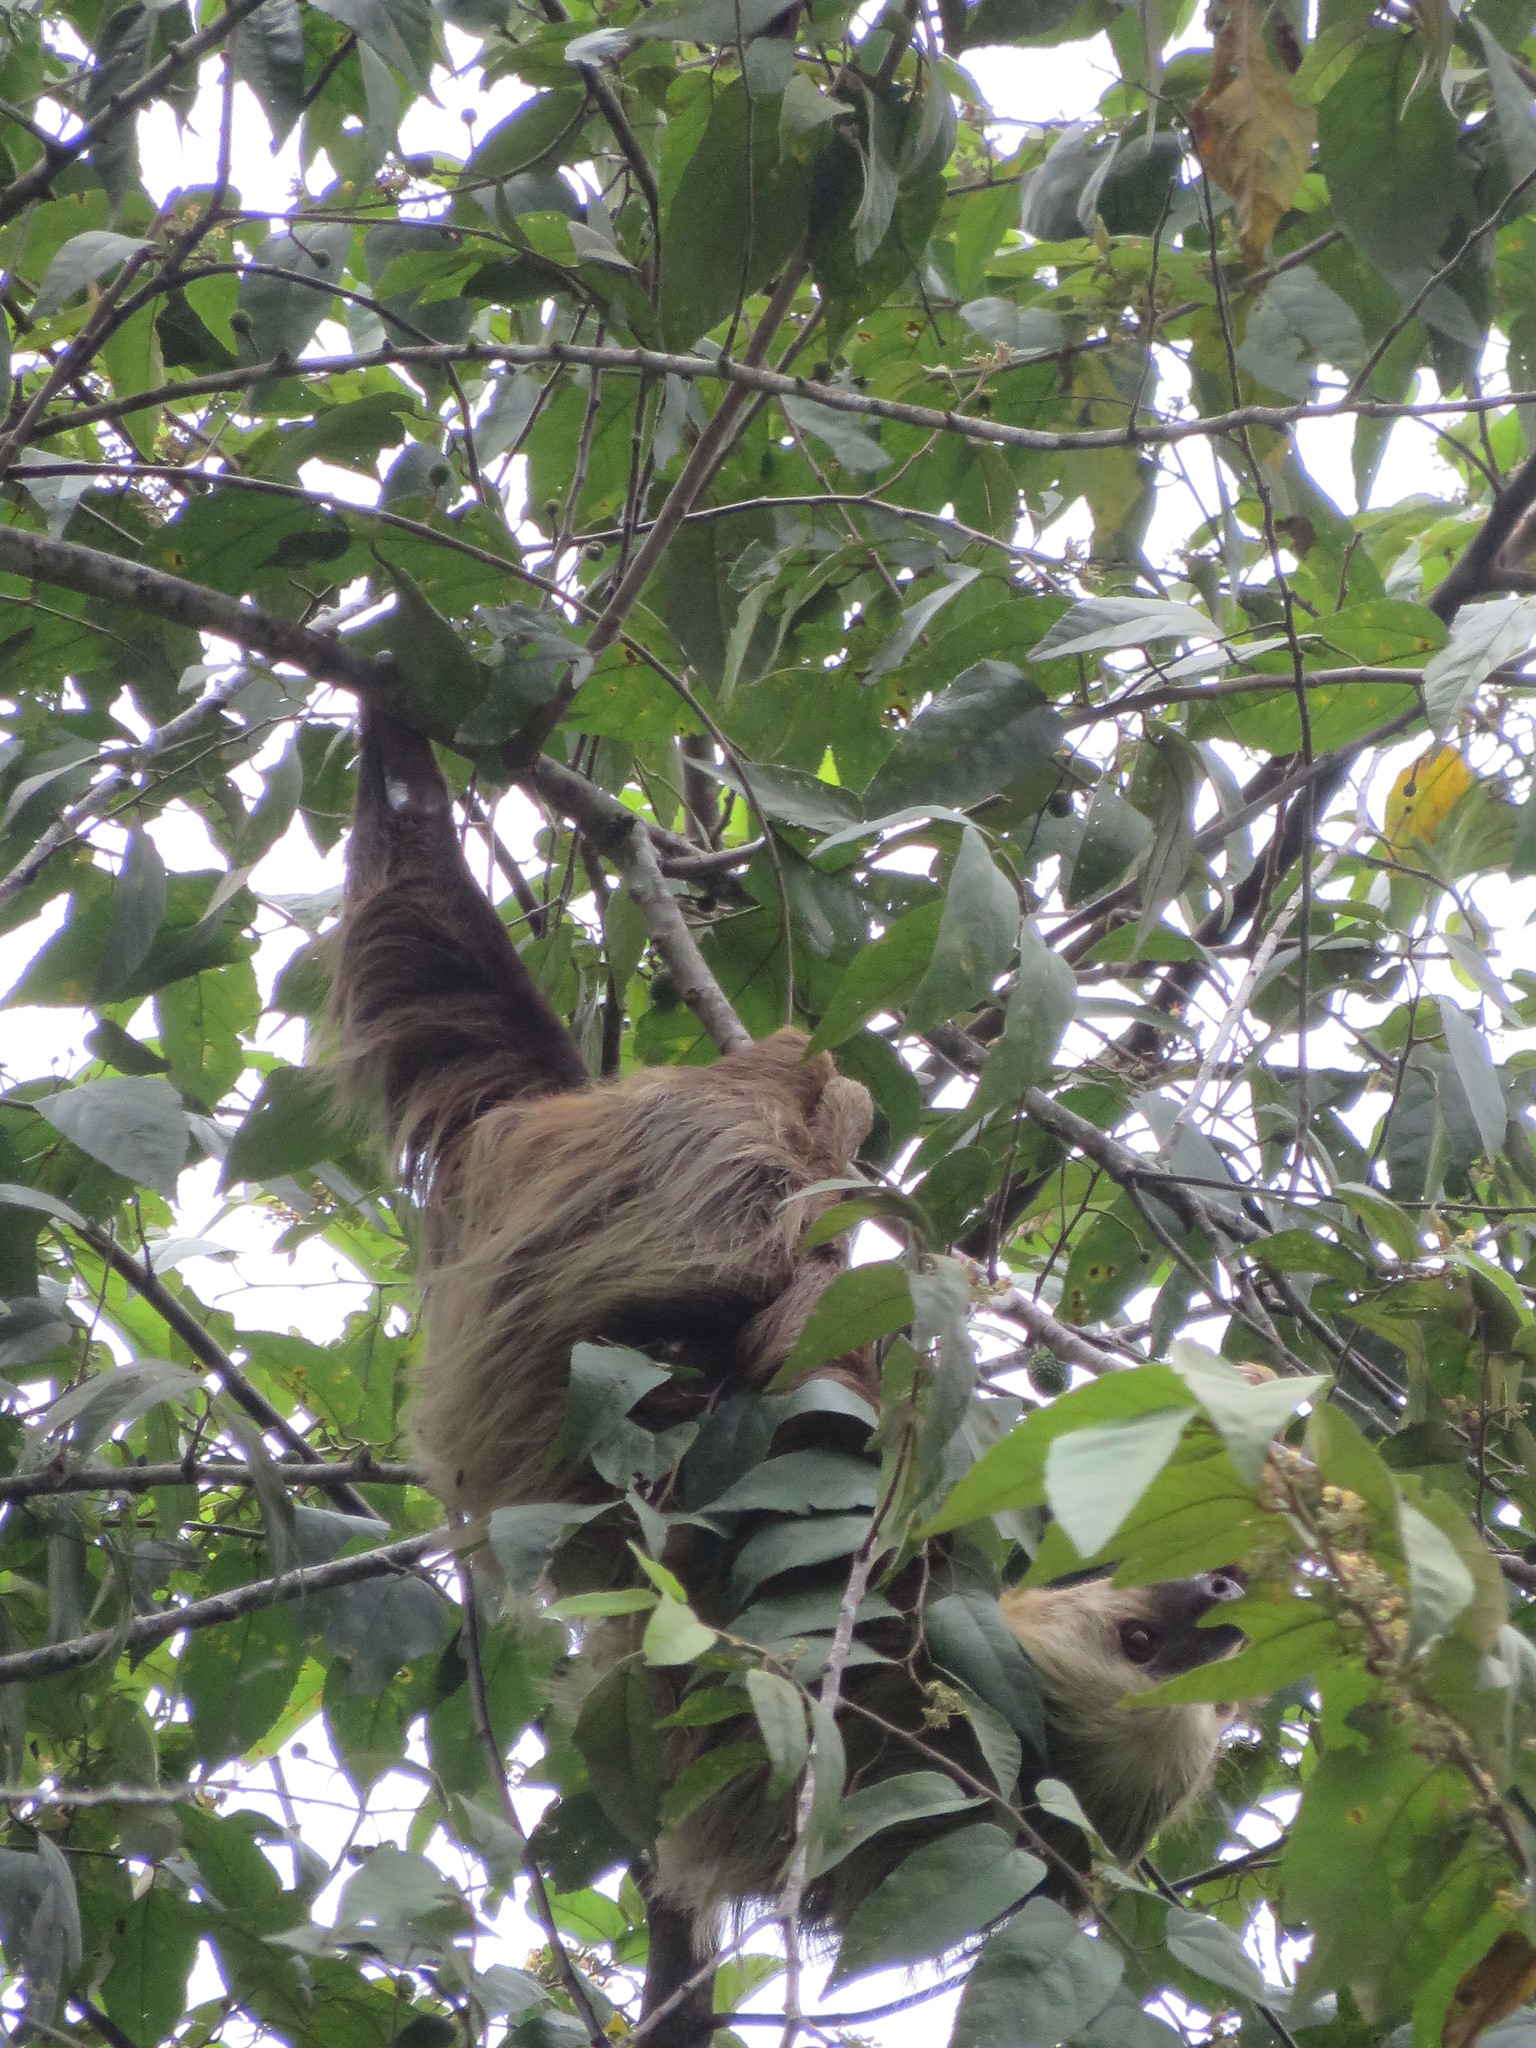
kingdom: Animalia
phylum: Chordata
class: Mammalia
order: Pilosa
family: Megalonychidae
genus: Choloepus
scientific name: Choloepus hoffmanni
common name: Hoffmann's two-toed sloth
